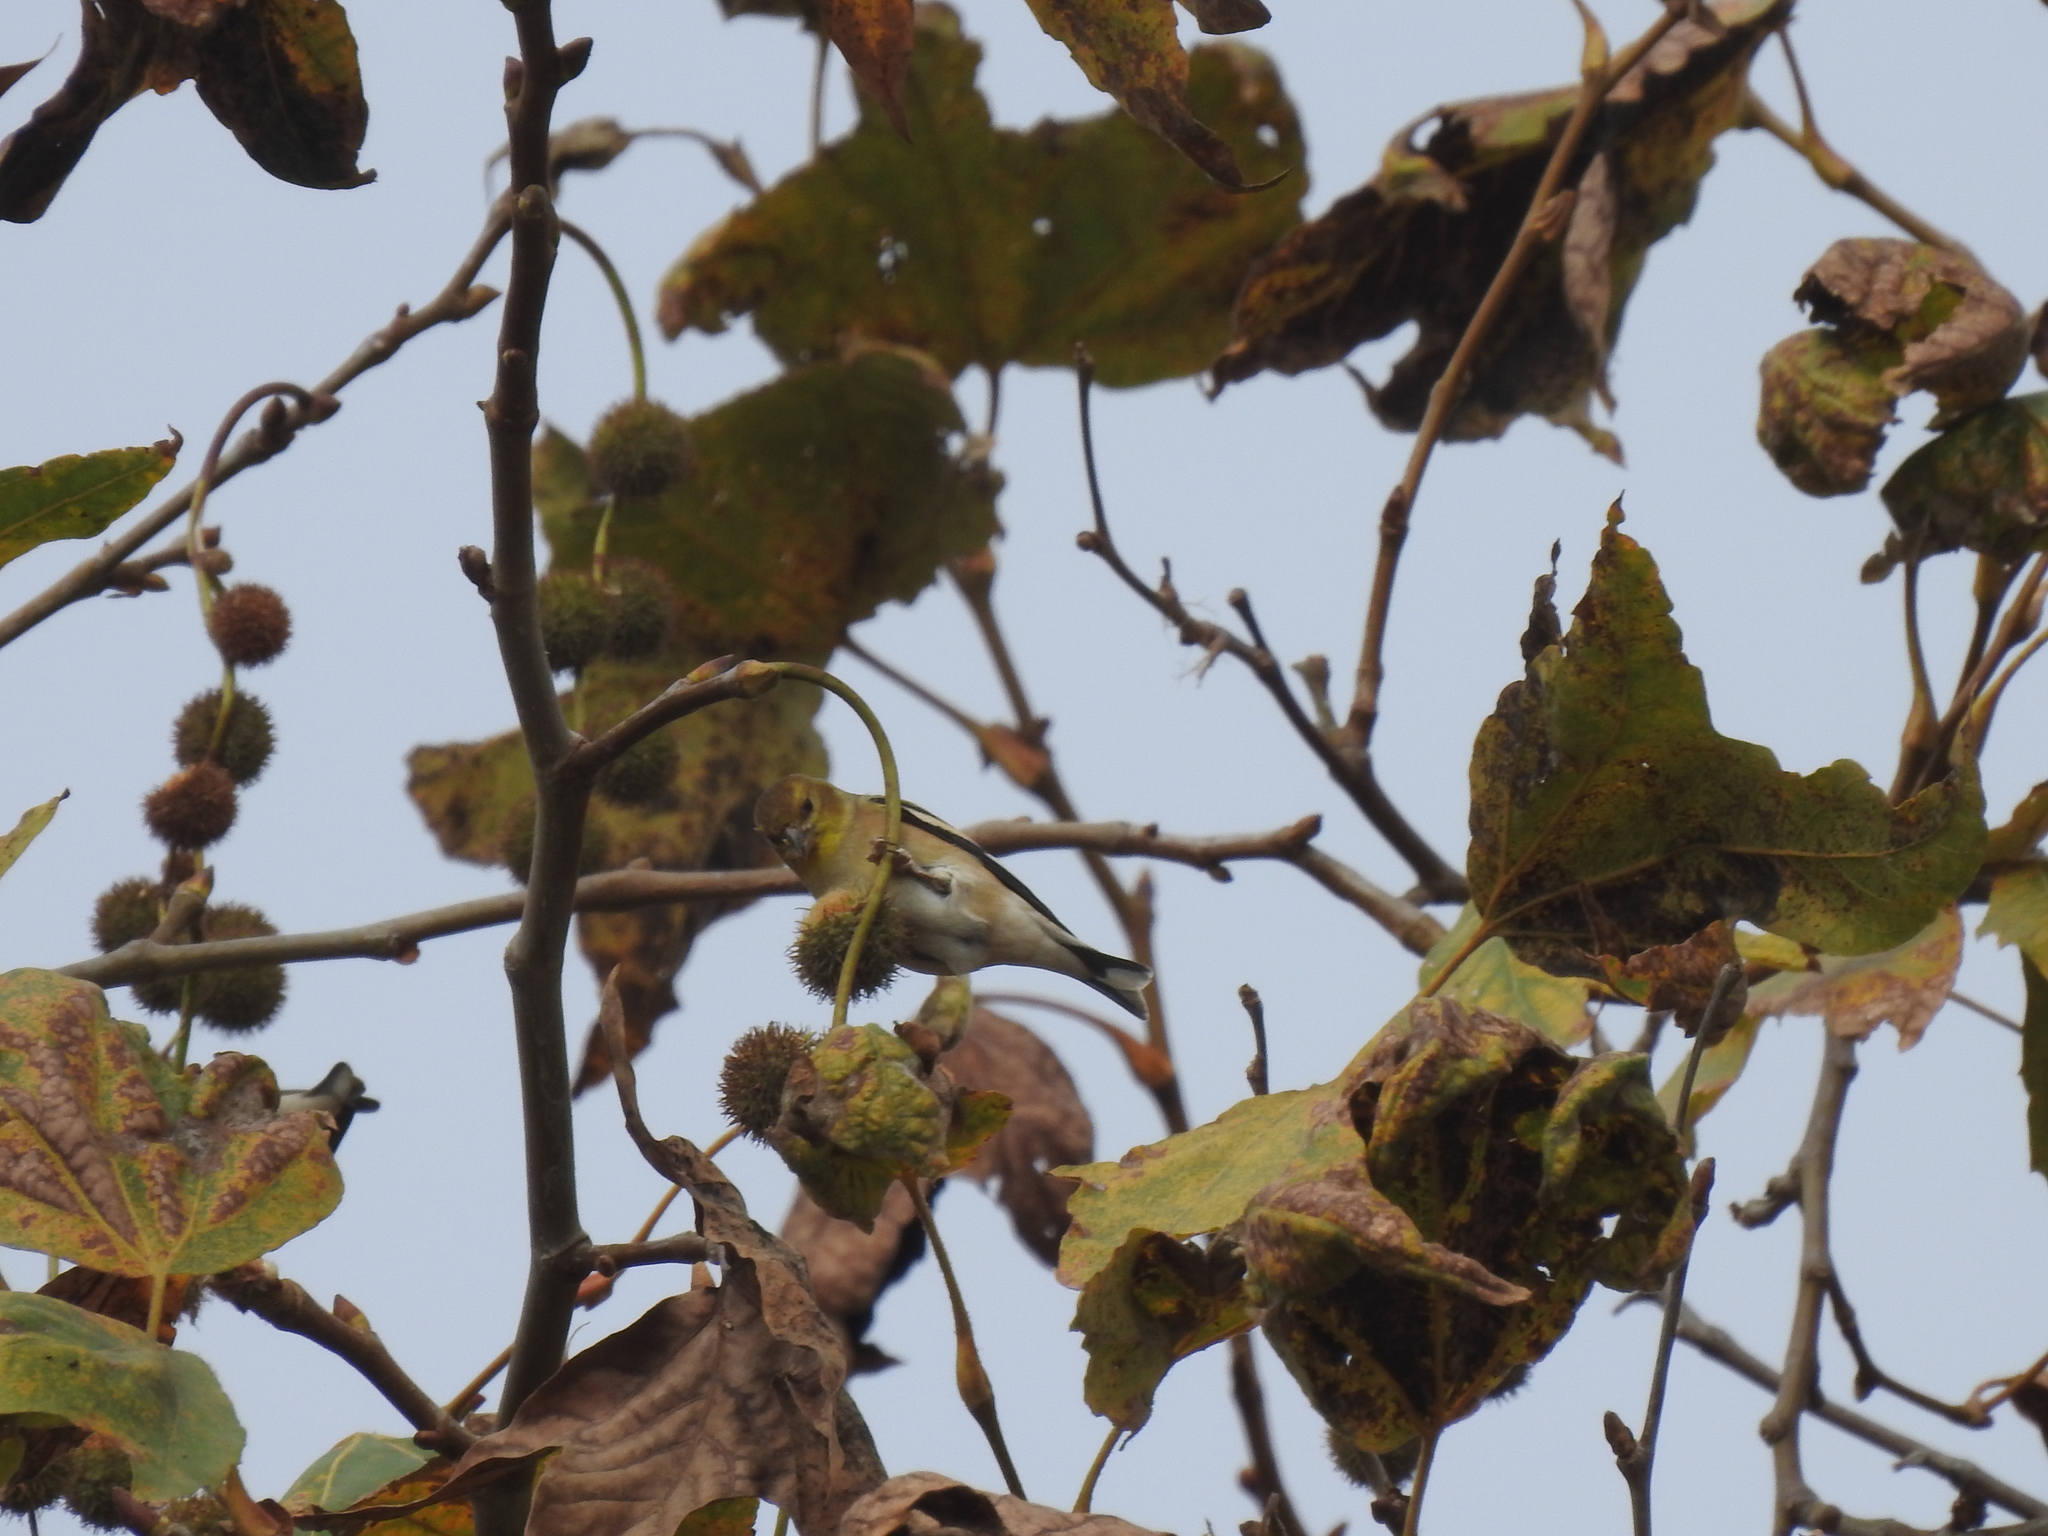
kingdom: Animalia
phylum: Chordata
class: Aves
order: Passeriformes
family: Fringillidae
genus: Spinus
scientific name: Spinus tristis
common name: American goldfinch
